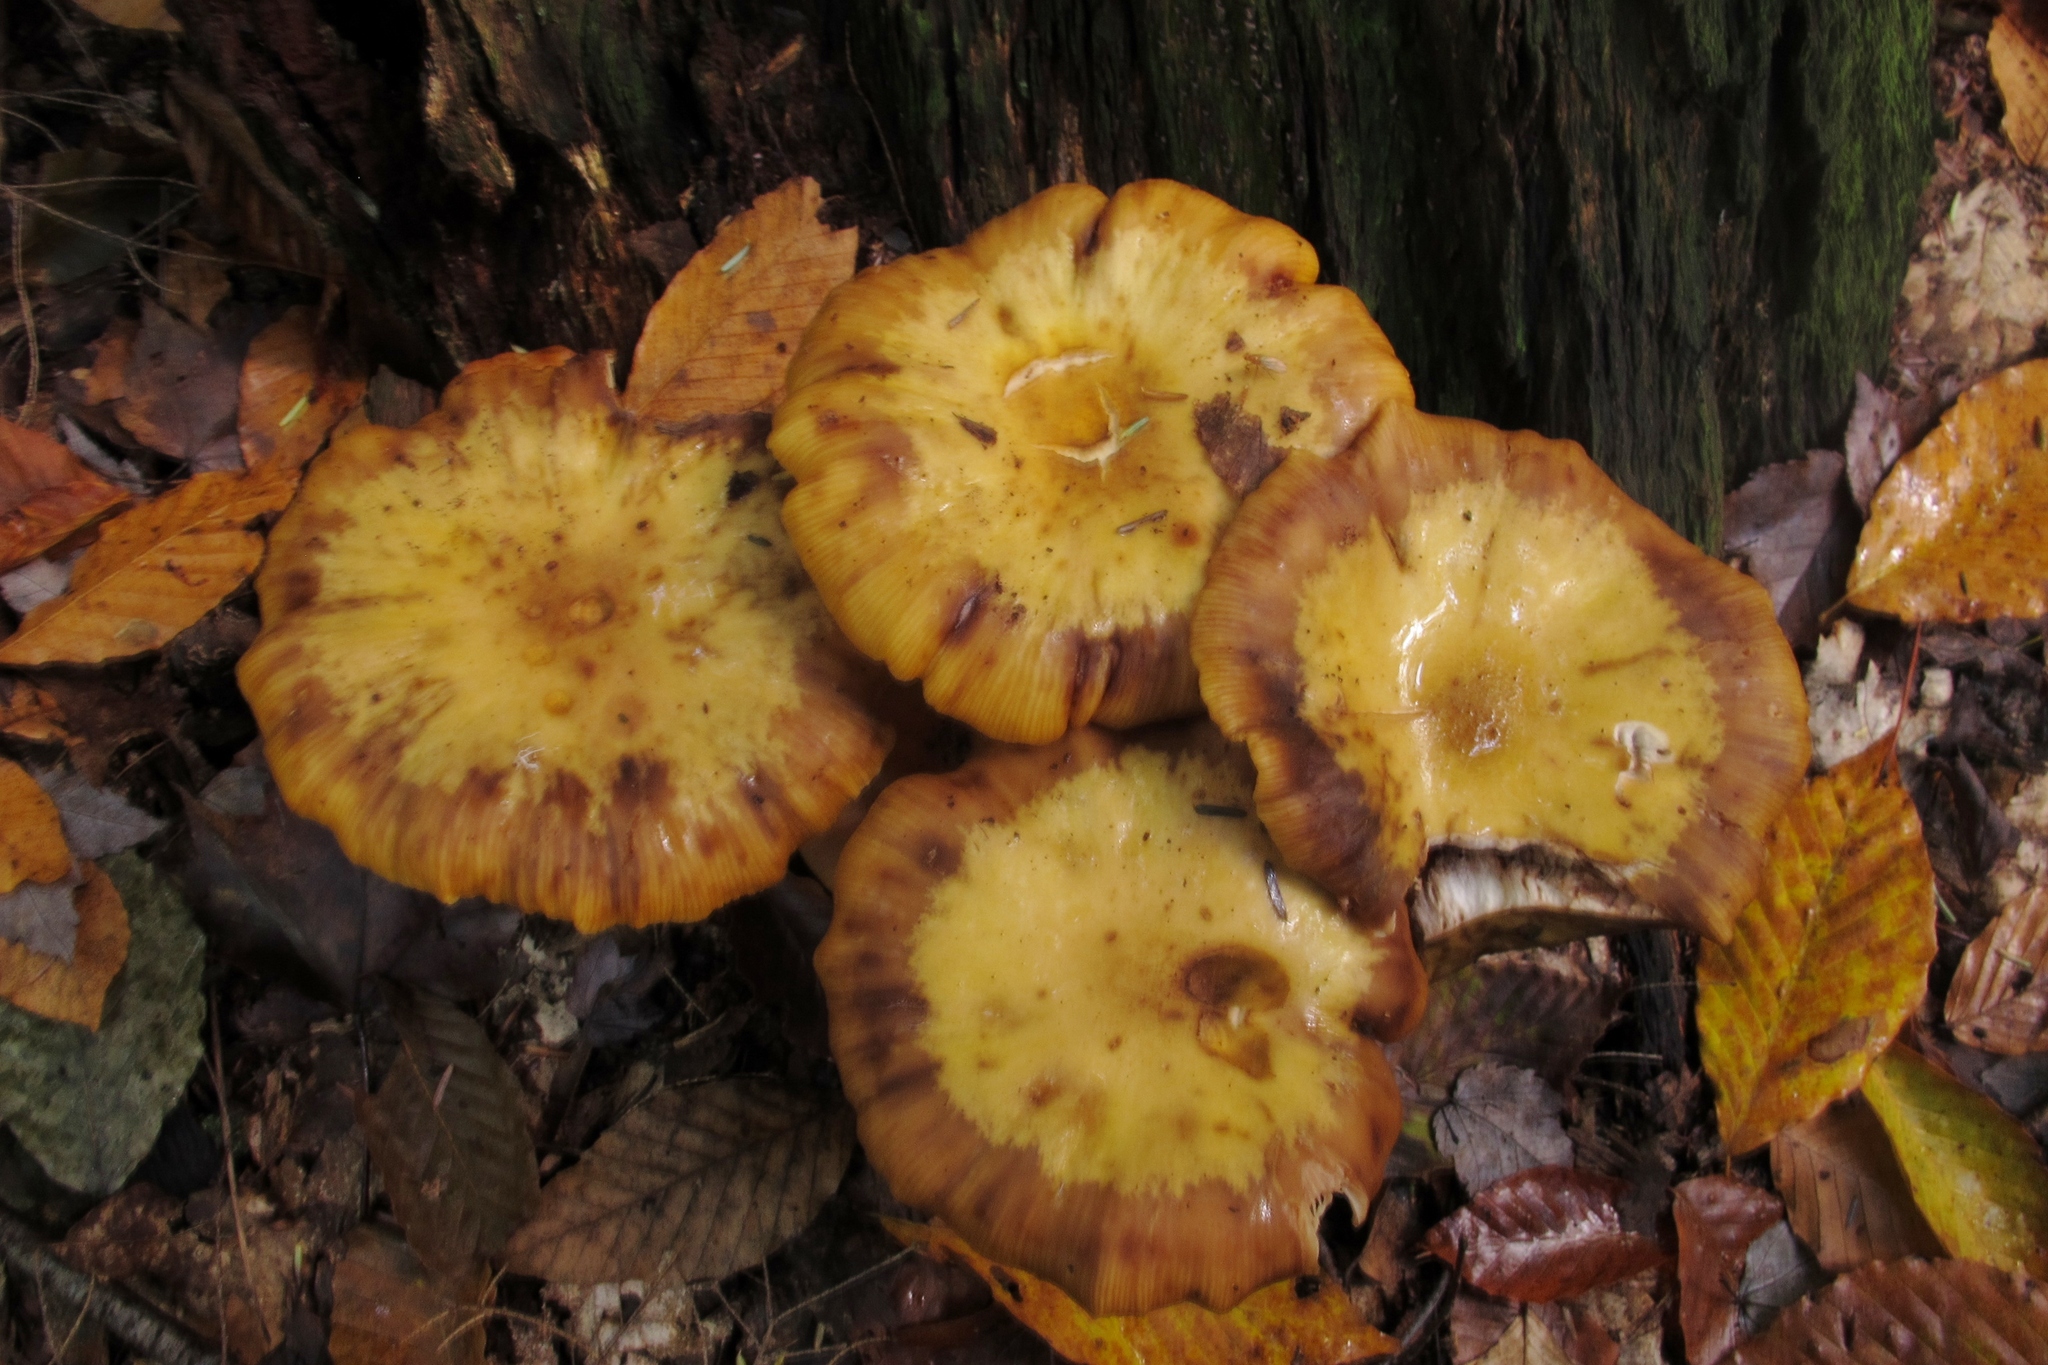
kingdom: Fungi
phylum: Basidiomycota
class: Agaricomycetes
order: Agaricales
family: Physalacriaceae
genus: Armillaria
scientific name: Armillaria mellea
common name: Honey fungus
